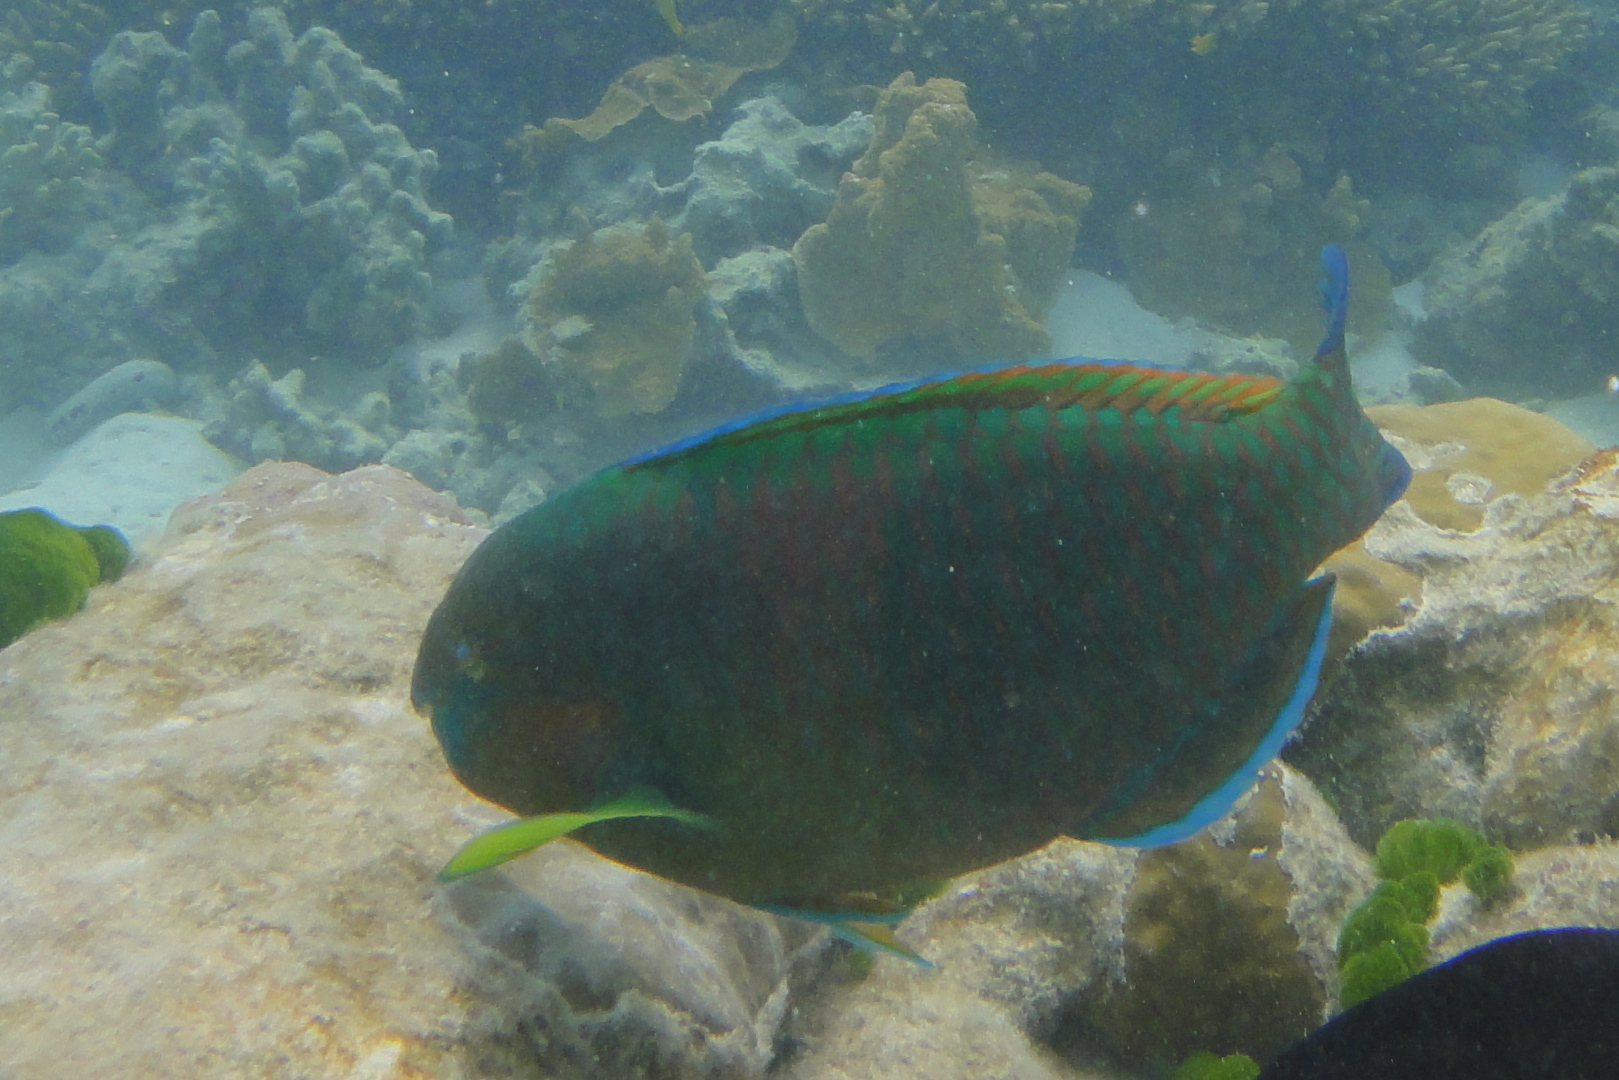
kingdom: Animalia
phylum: Chordata
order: Perciformes
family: Scaridae
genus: Scarus
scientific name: Scarus rivulatus
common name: Surf parrotfish
